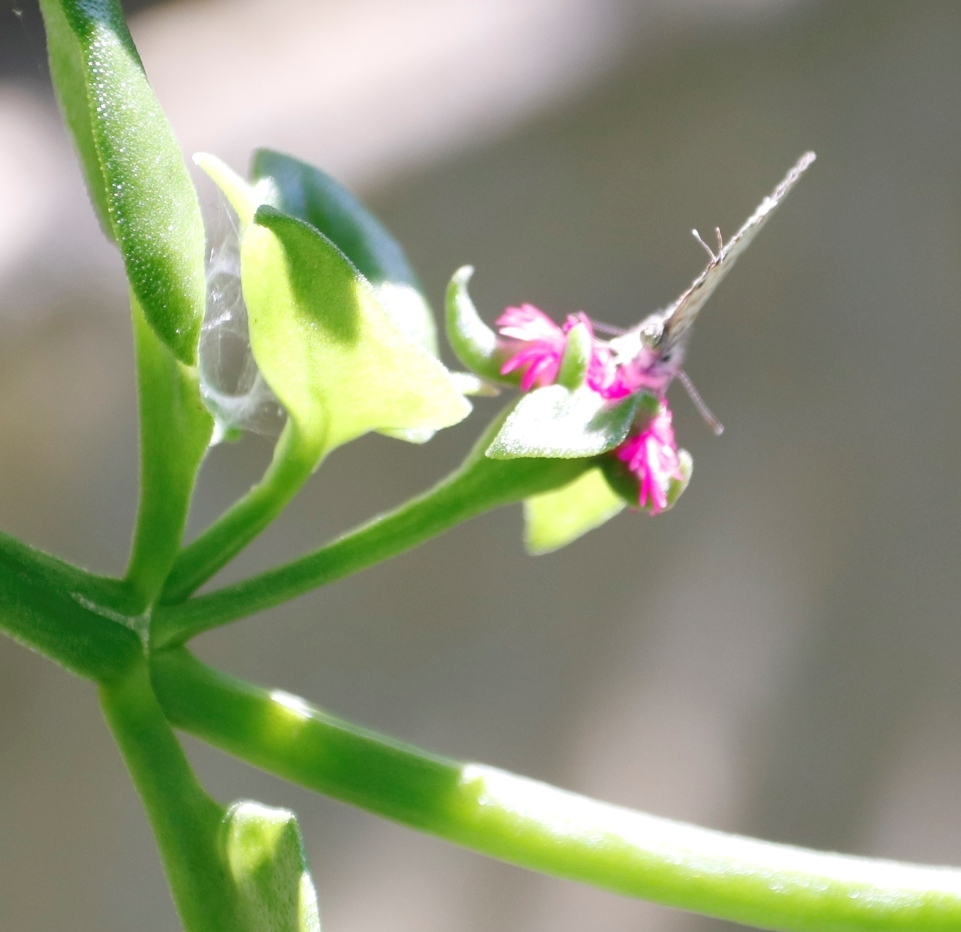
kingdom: Animalia
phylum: Arthropoda
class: Insecta
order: Lepidoptera
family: Lycaenidae
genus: Leptotes
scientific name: Leptotes
